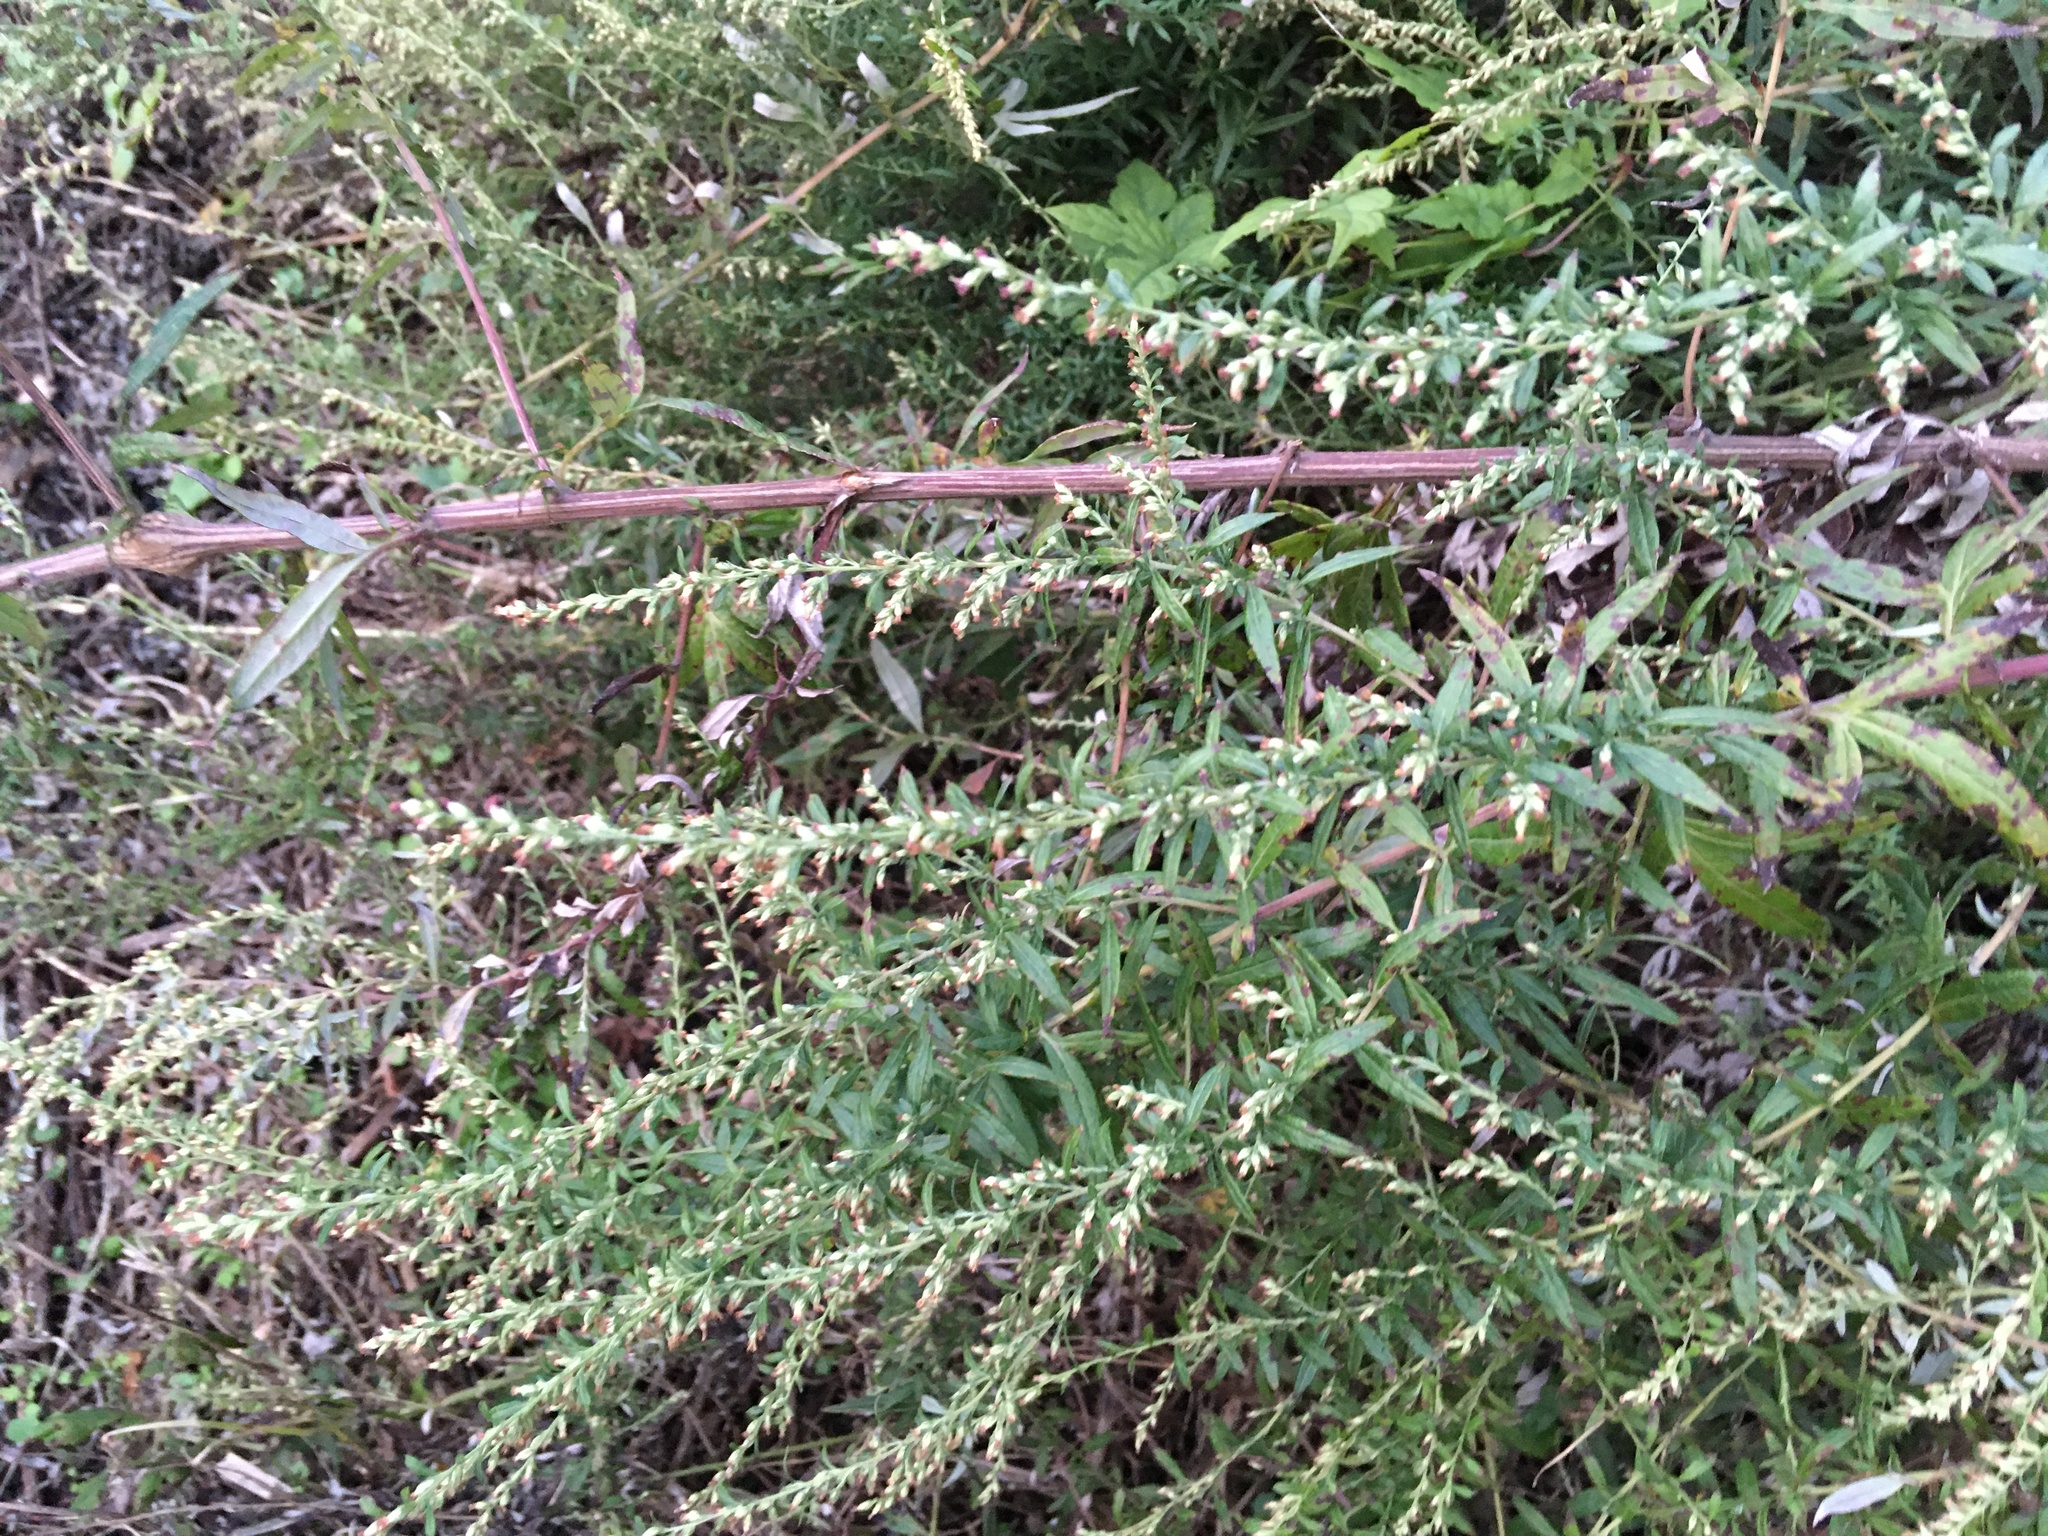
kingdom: Plantae
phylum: Tracheophyta
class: Magnoliopsida
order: Asterales
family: Asteraceae
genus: Artemisia
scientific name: Artemisia vulgaris
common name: Mugwort
